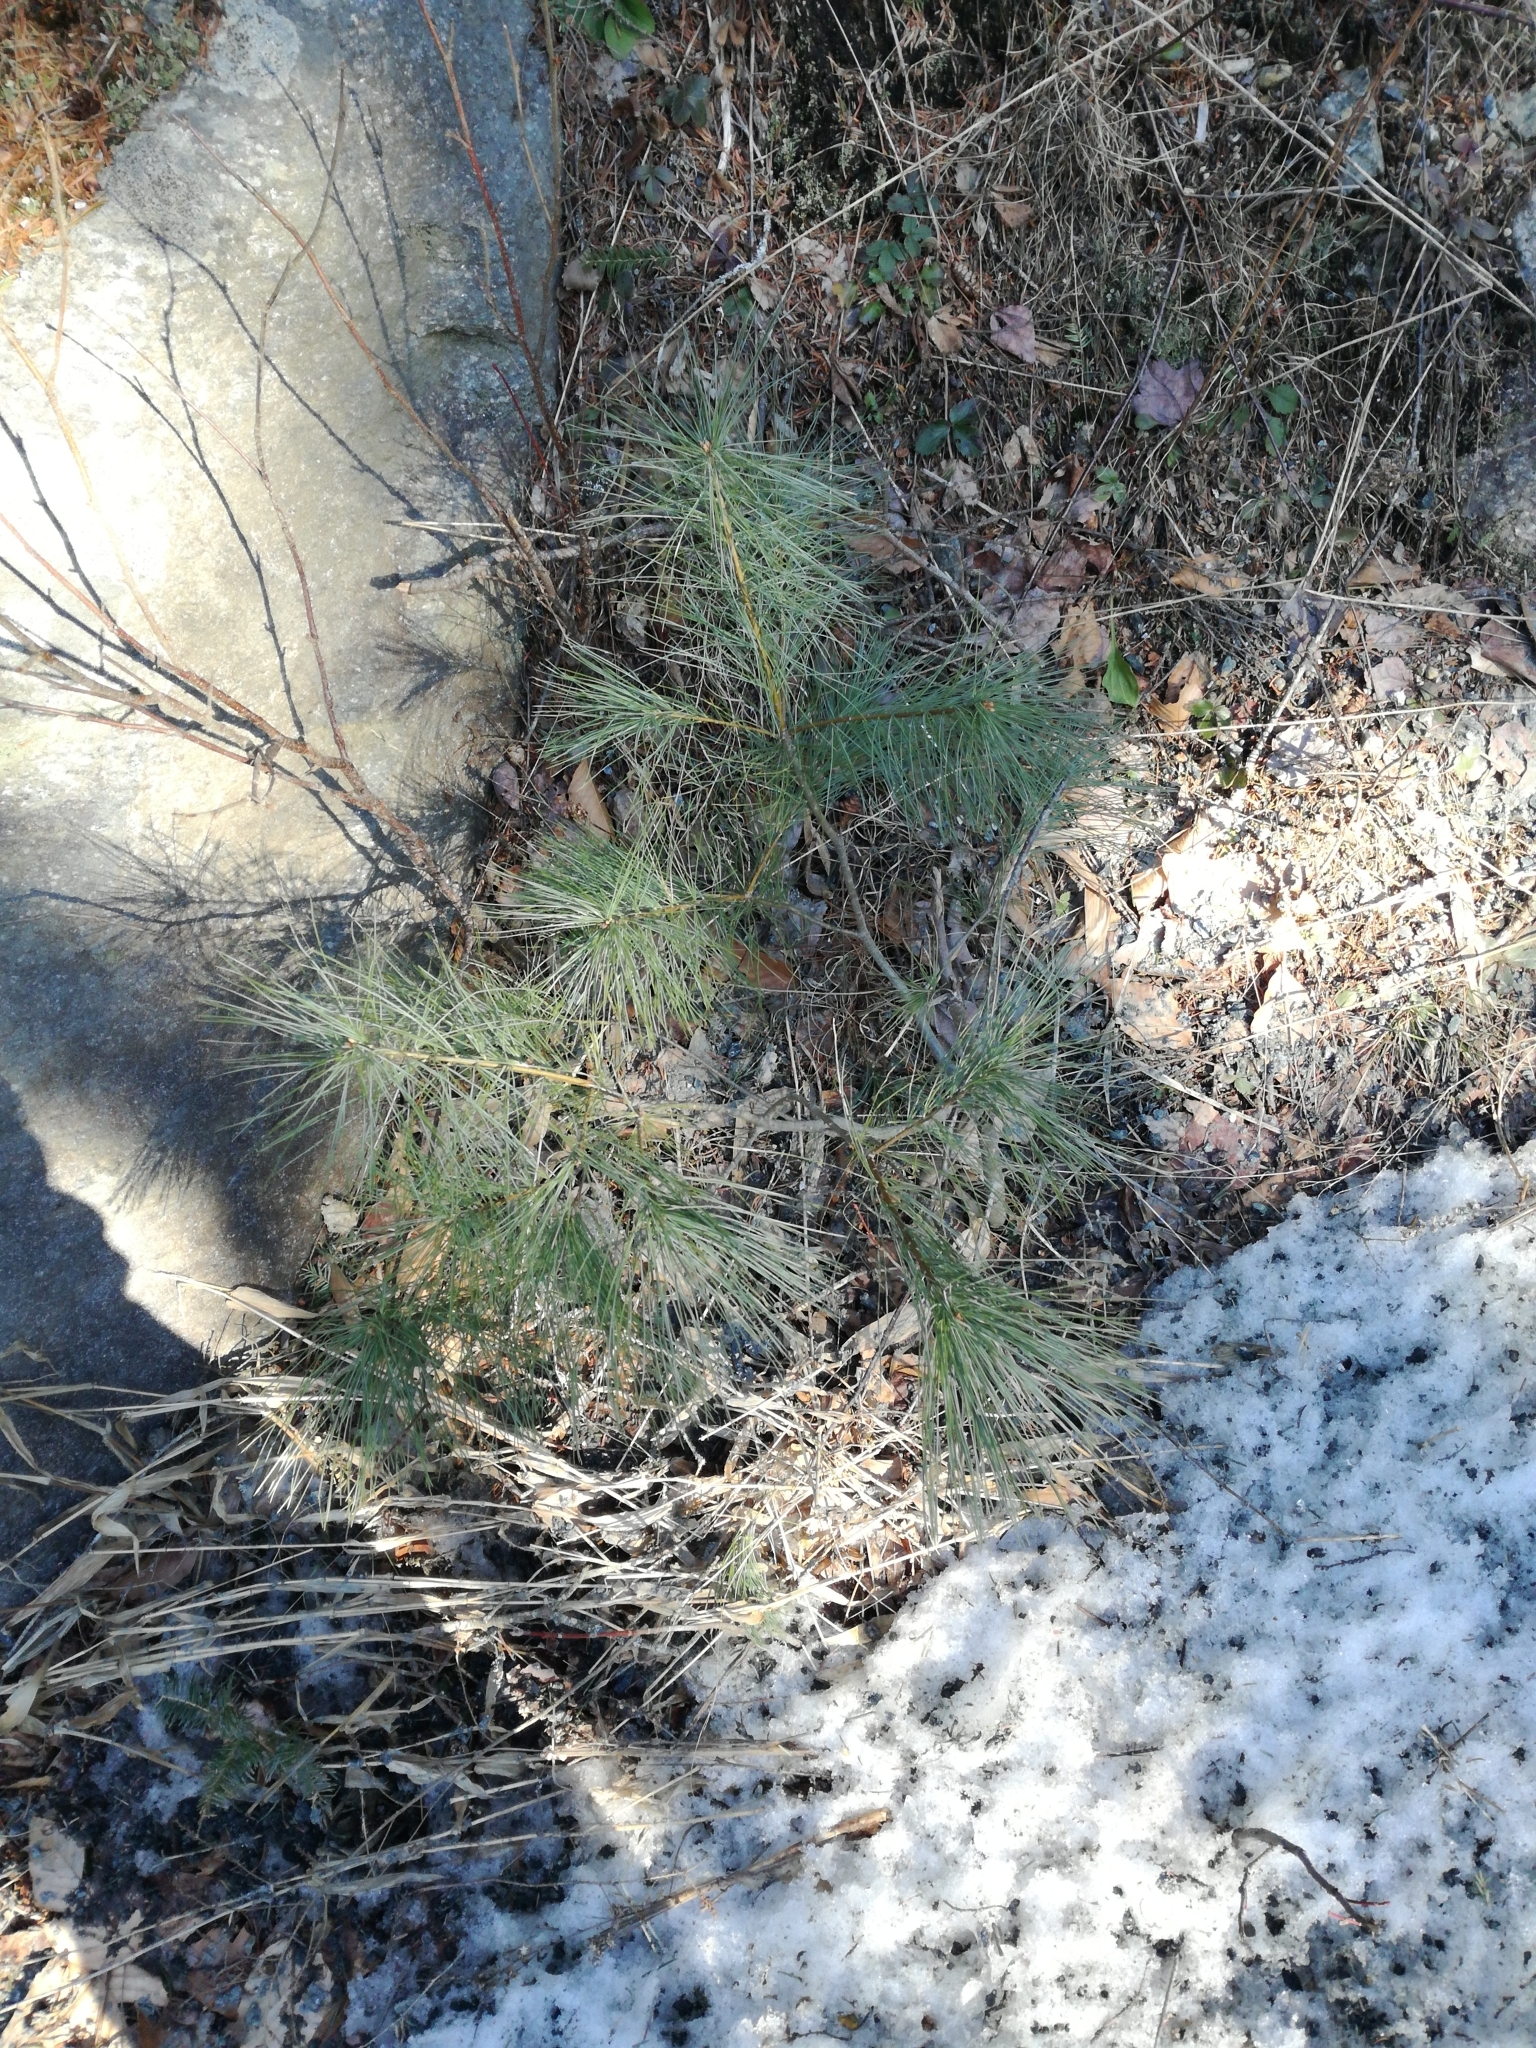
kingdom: Plantae
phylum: Tracheophyta
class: Pinopsida
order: Pinales
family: Pinaceae
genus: Pinus
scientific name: Pinus strobus
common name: Weymouth pine
